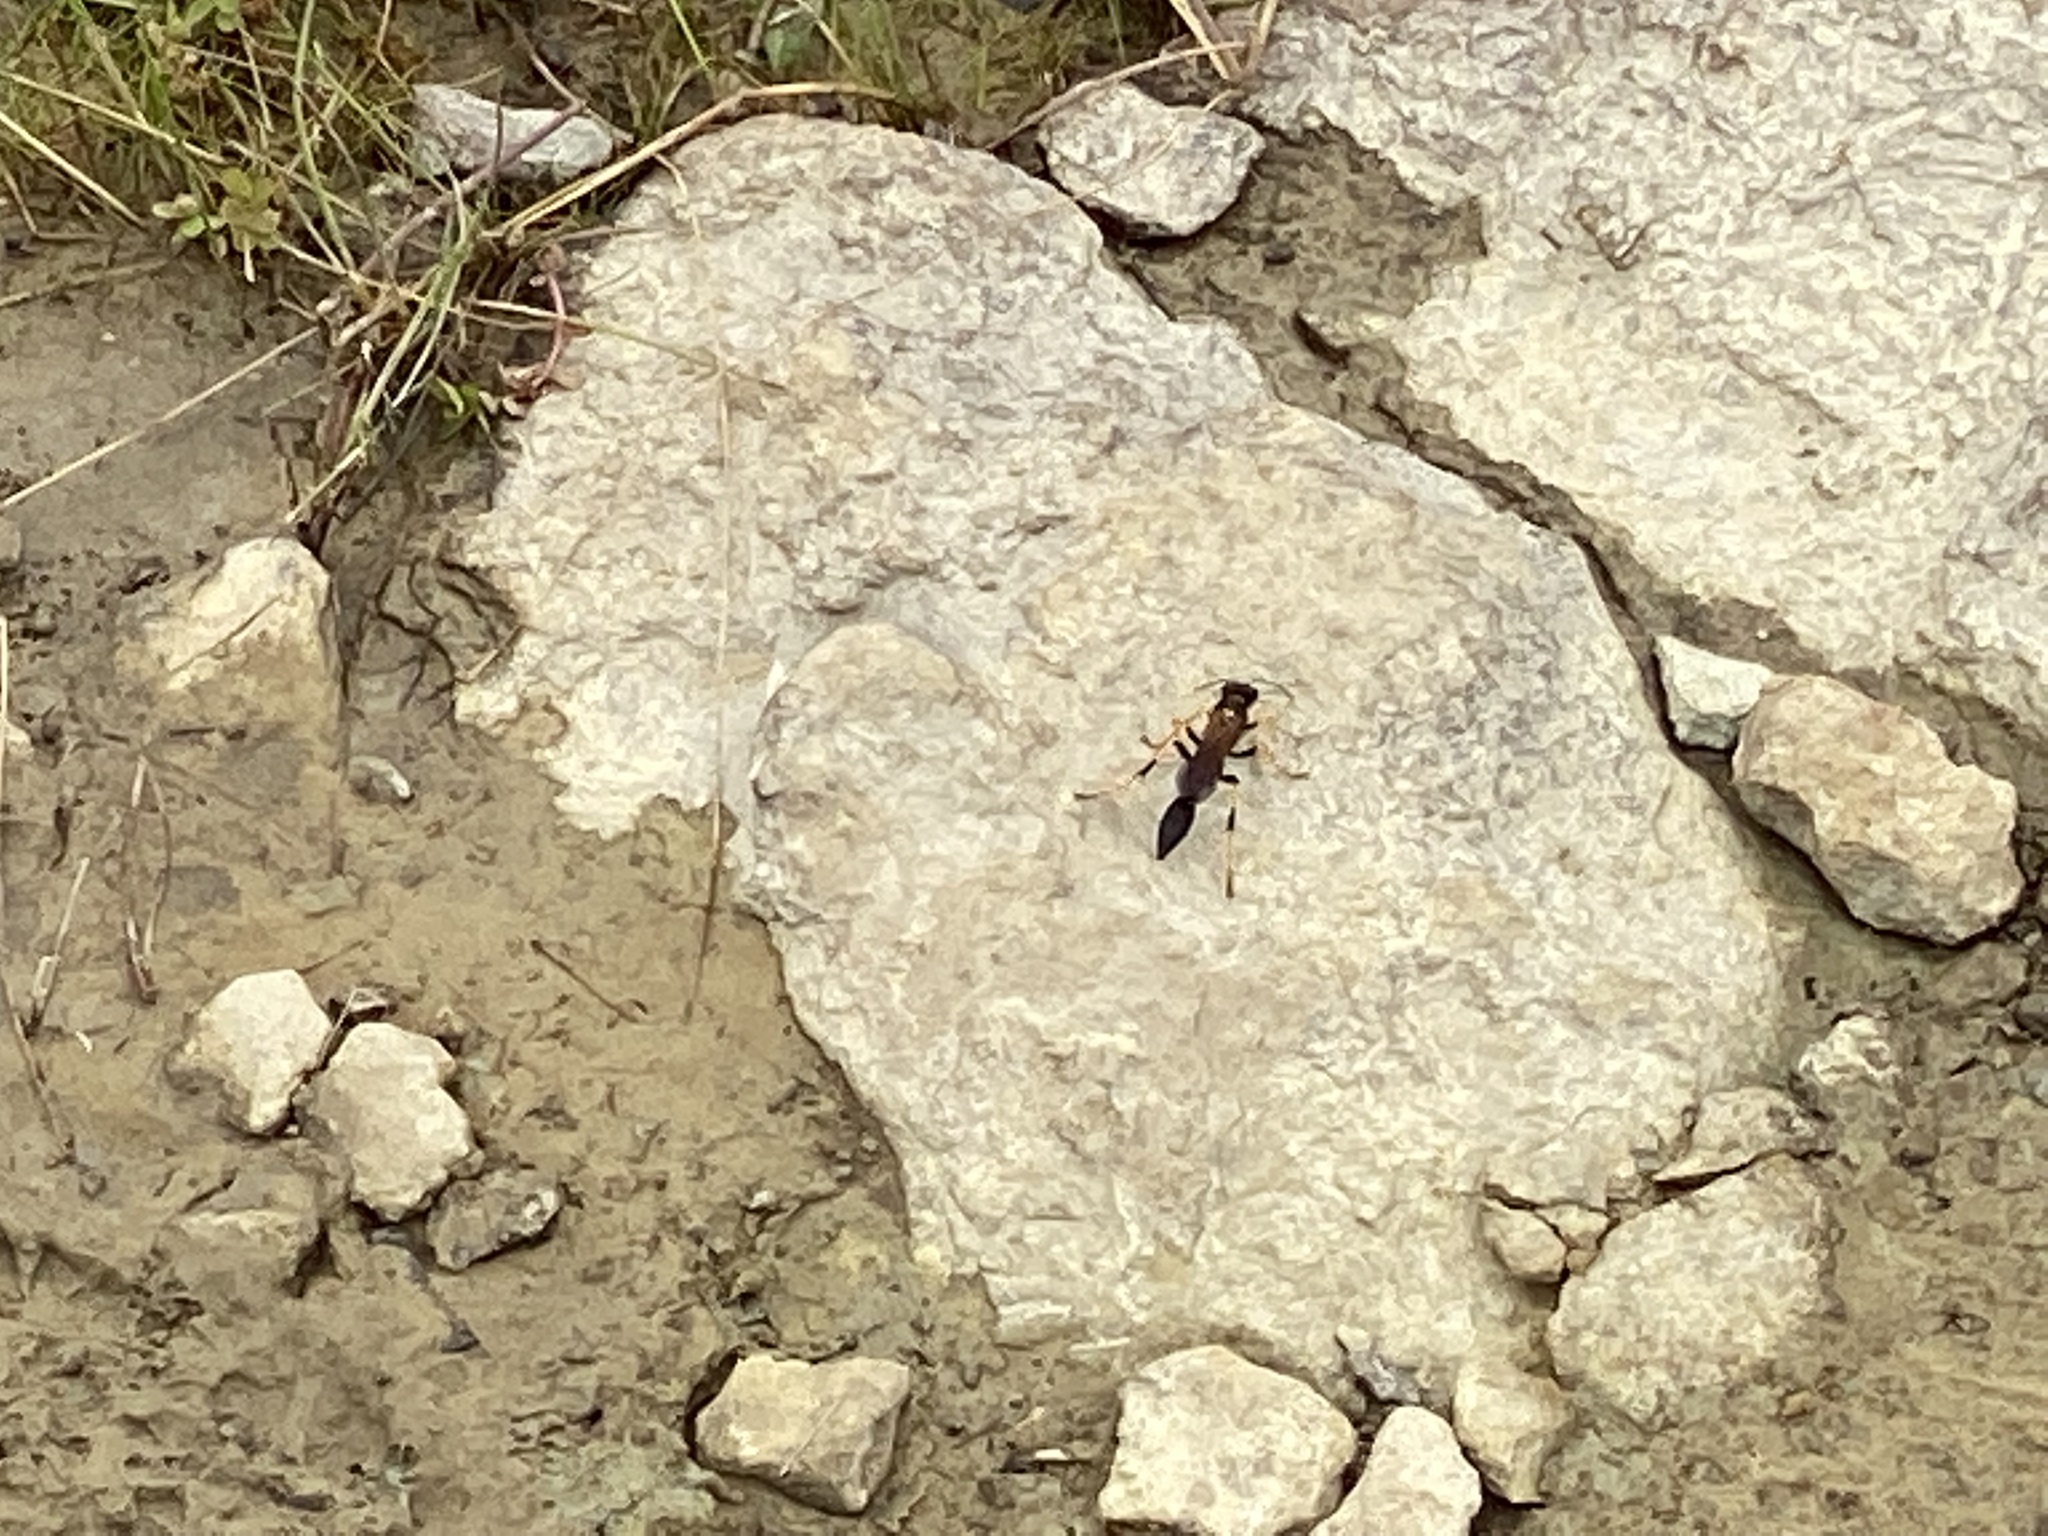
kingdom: Animalia
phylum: Arthropoda
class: Insecta
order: Hymenoptera
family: Sphecidae
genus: Sceliphron
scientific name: Sceliphron caementarium
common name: Mud dauber
